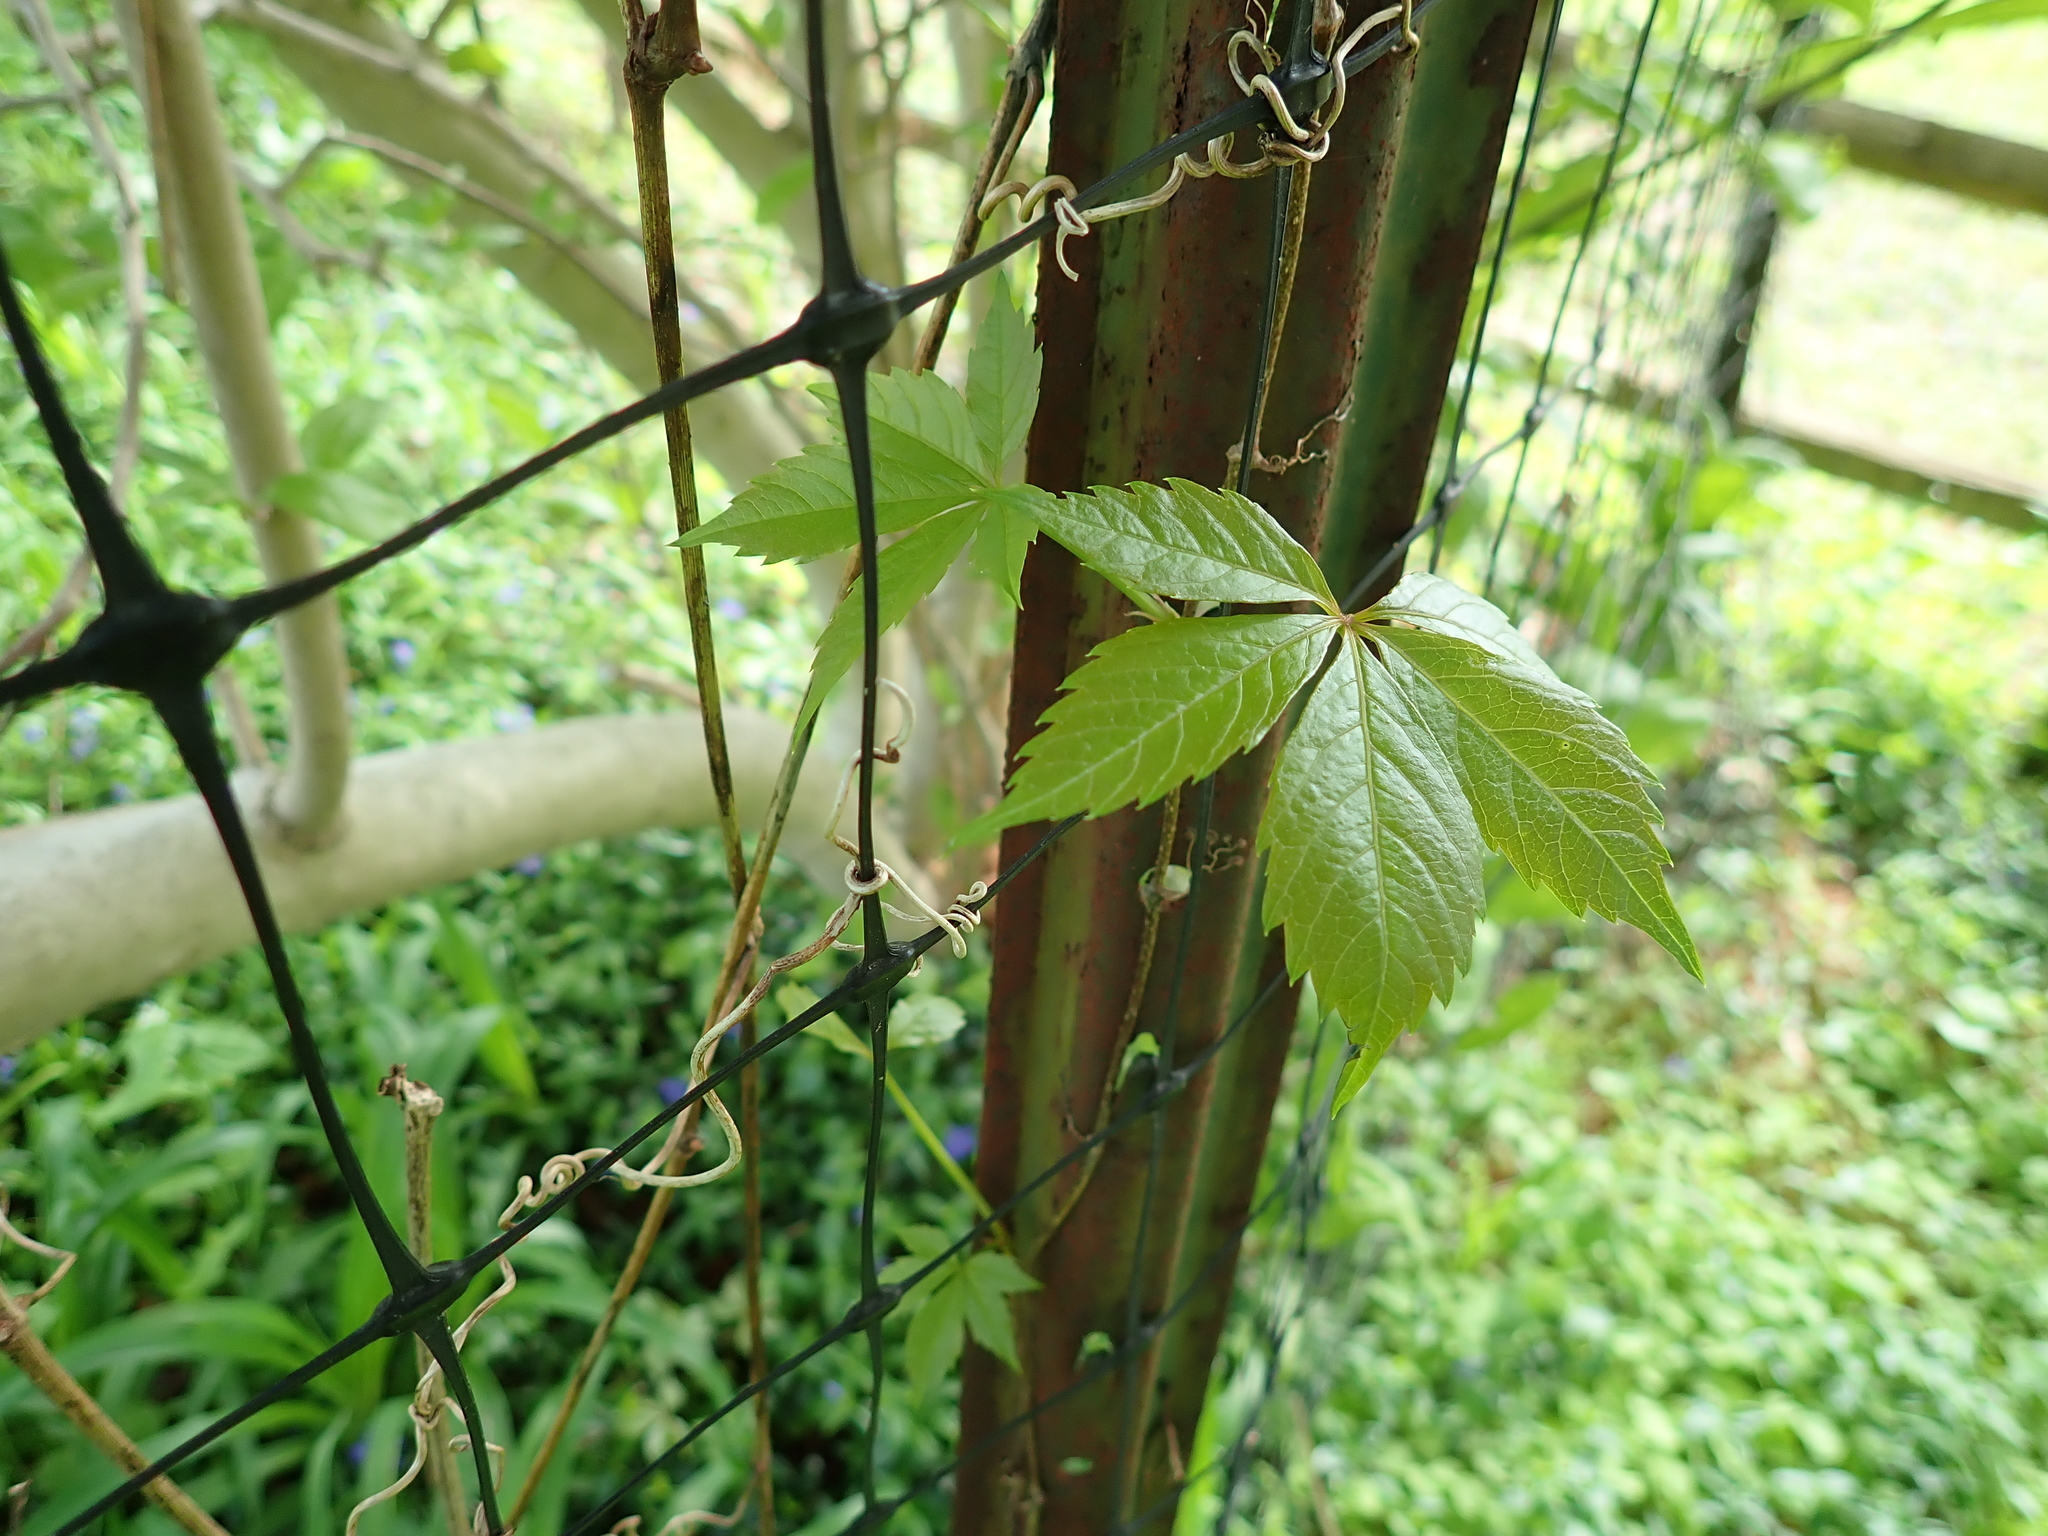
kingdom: Plantae
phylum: Tracheophyta
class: Magnoliopsida
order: Vitales
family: Vitaceae
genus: Parthenocissus
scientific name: Parthenocissus quinquefolia
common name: Virginia-creeper
